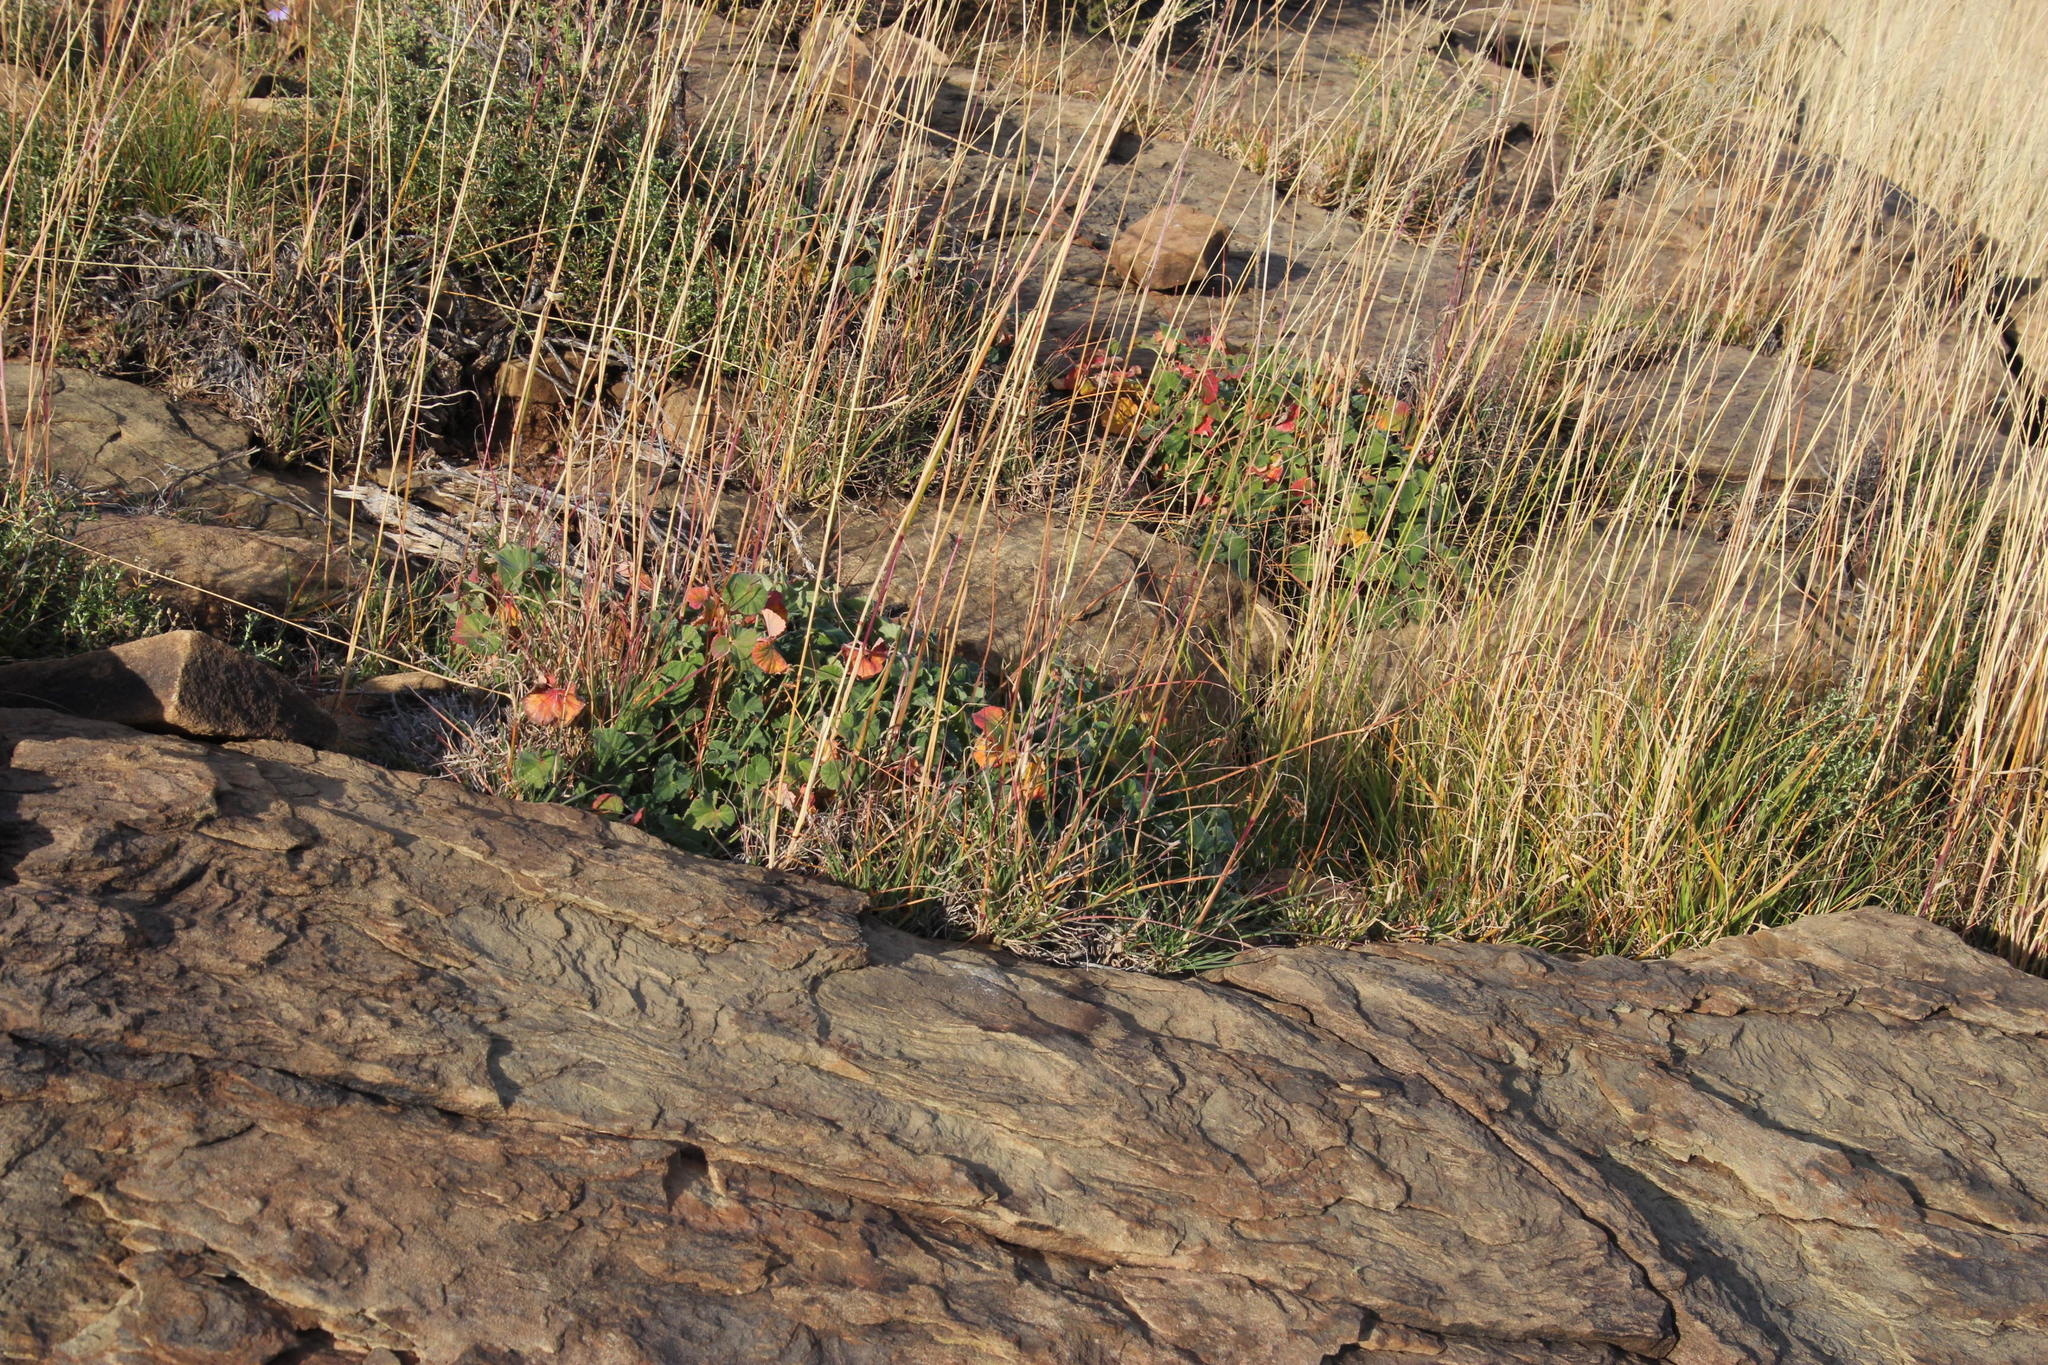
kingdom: Plantae
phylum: Tracheophyta
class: Magnoliopsida
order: Geraniales
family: Geraniaceae
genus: Pelargonium
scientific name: Pelargonium sidoides
